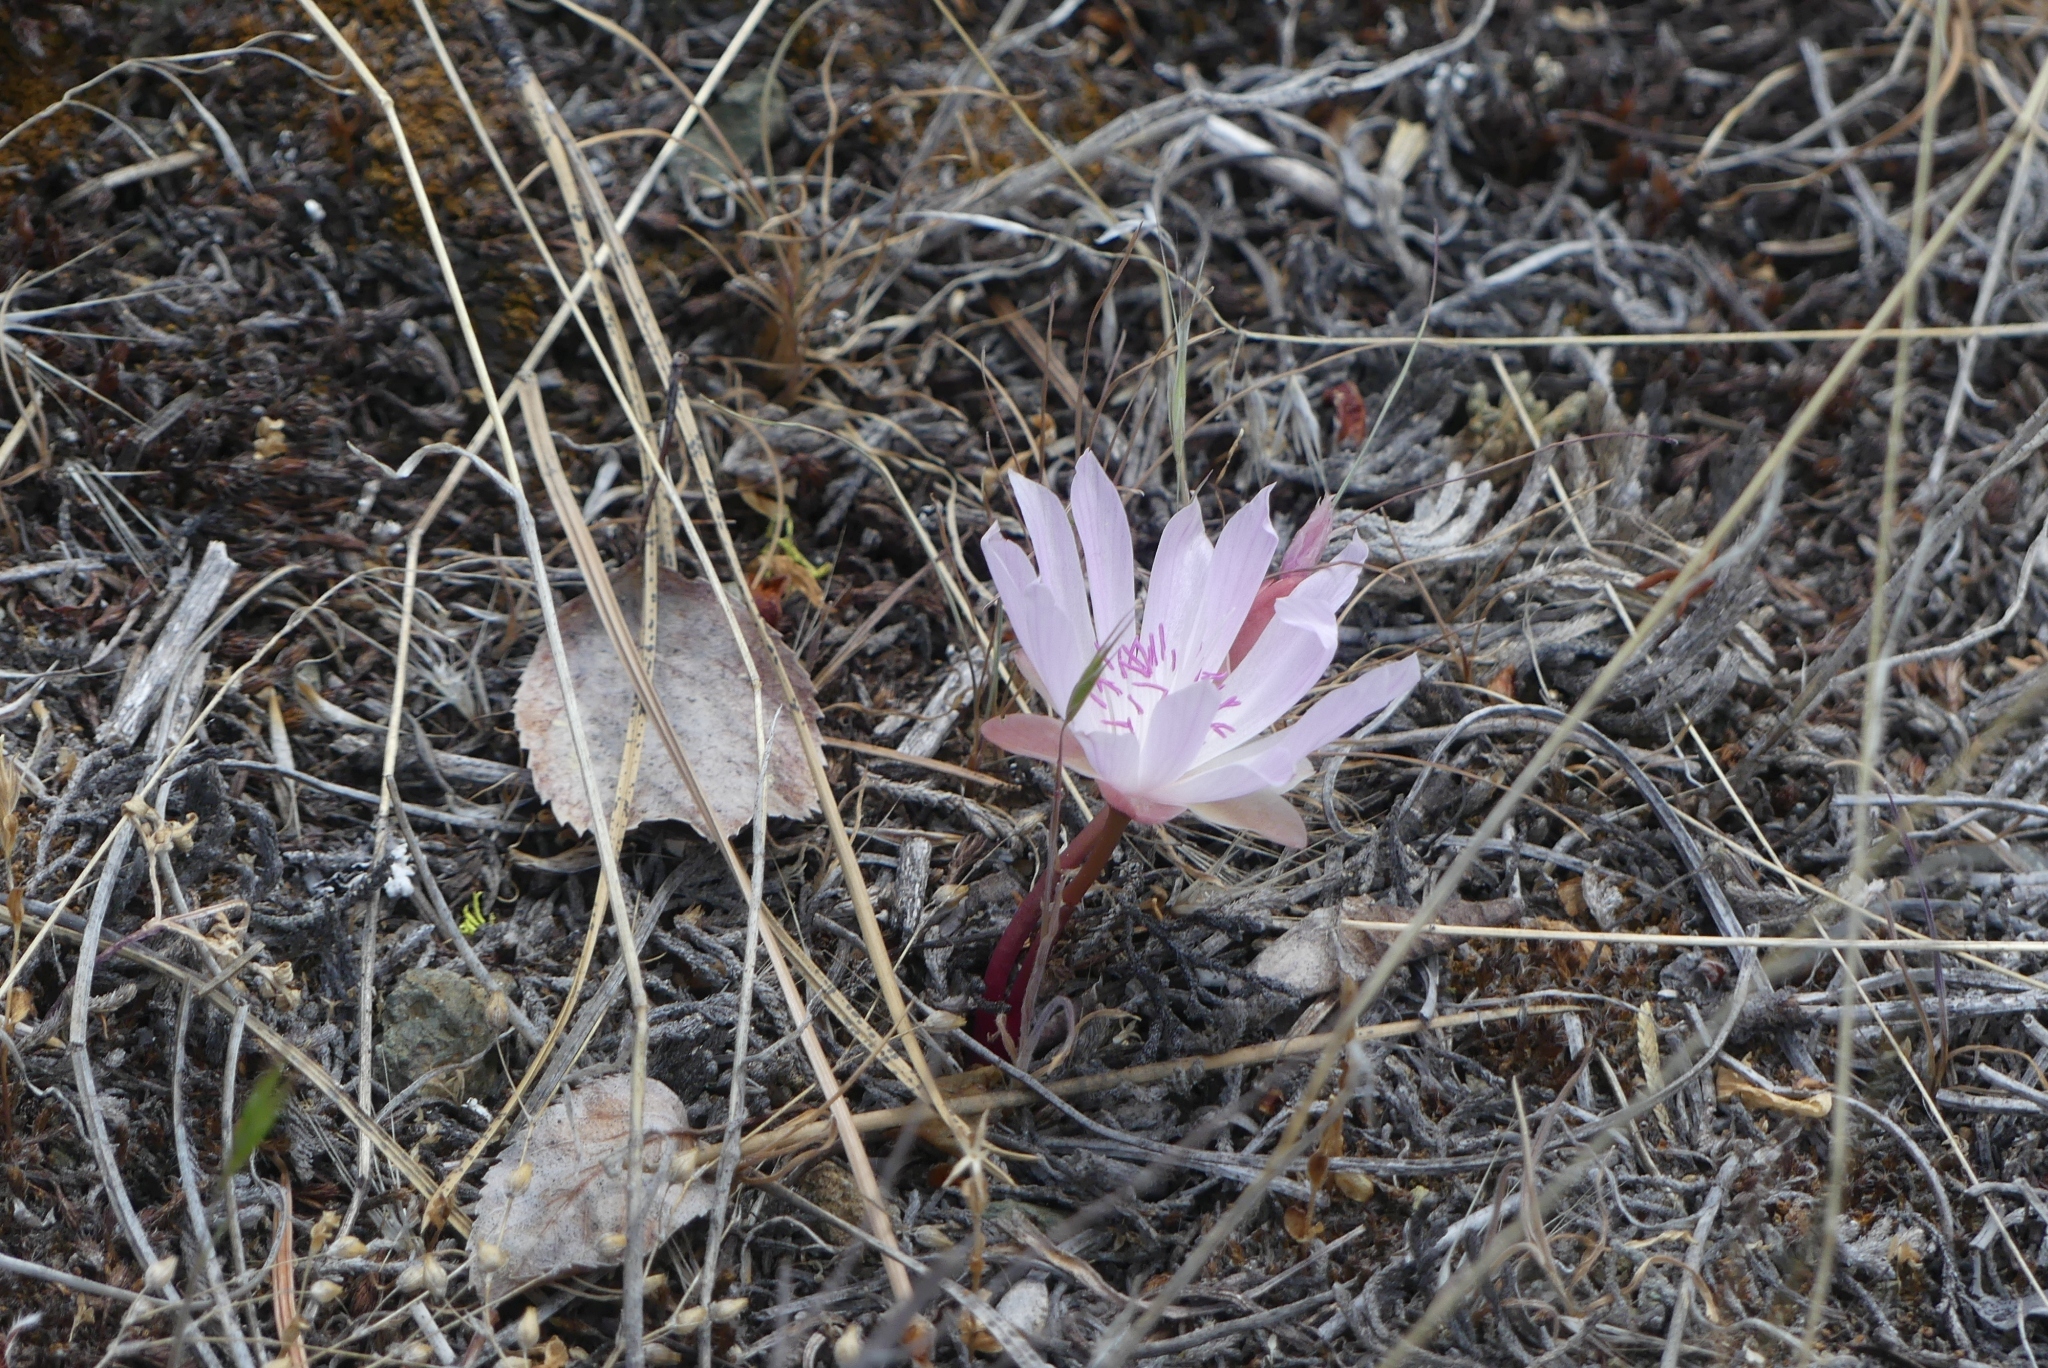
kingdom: Plantae
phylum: Tracheophyta
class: Magnoliopsida
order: Caryophyllales
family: Montiaceae
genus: Lewisia
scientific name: Lewisia rediviva
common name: Bitter-root
